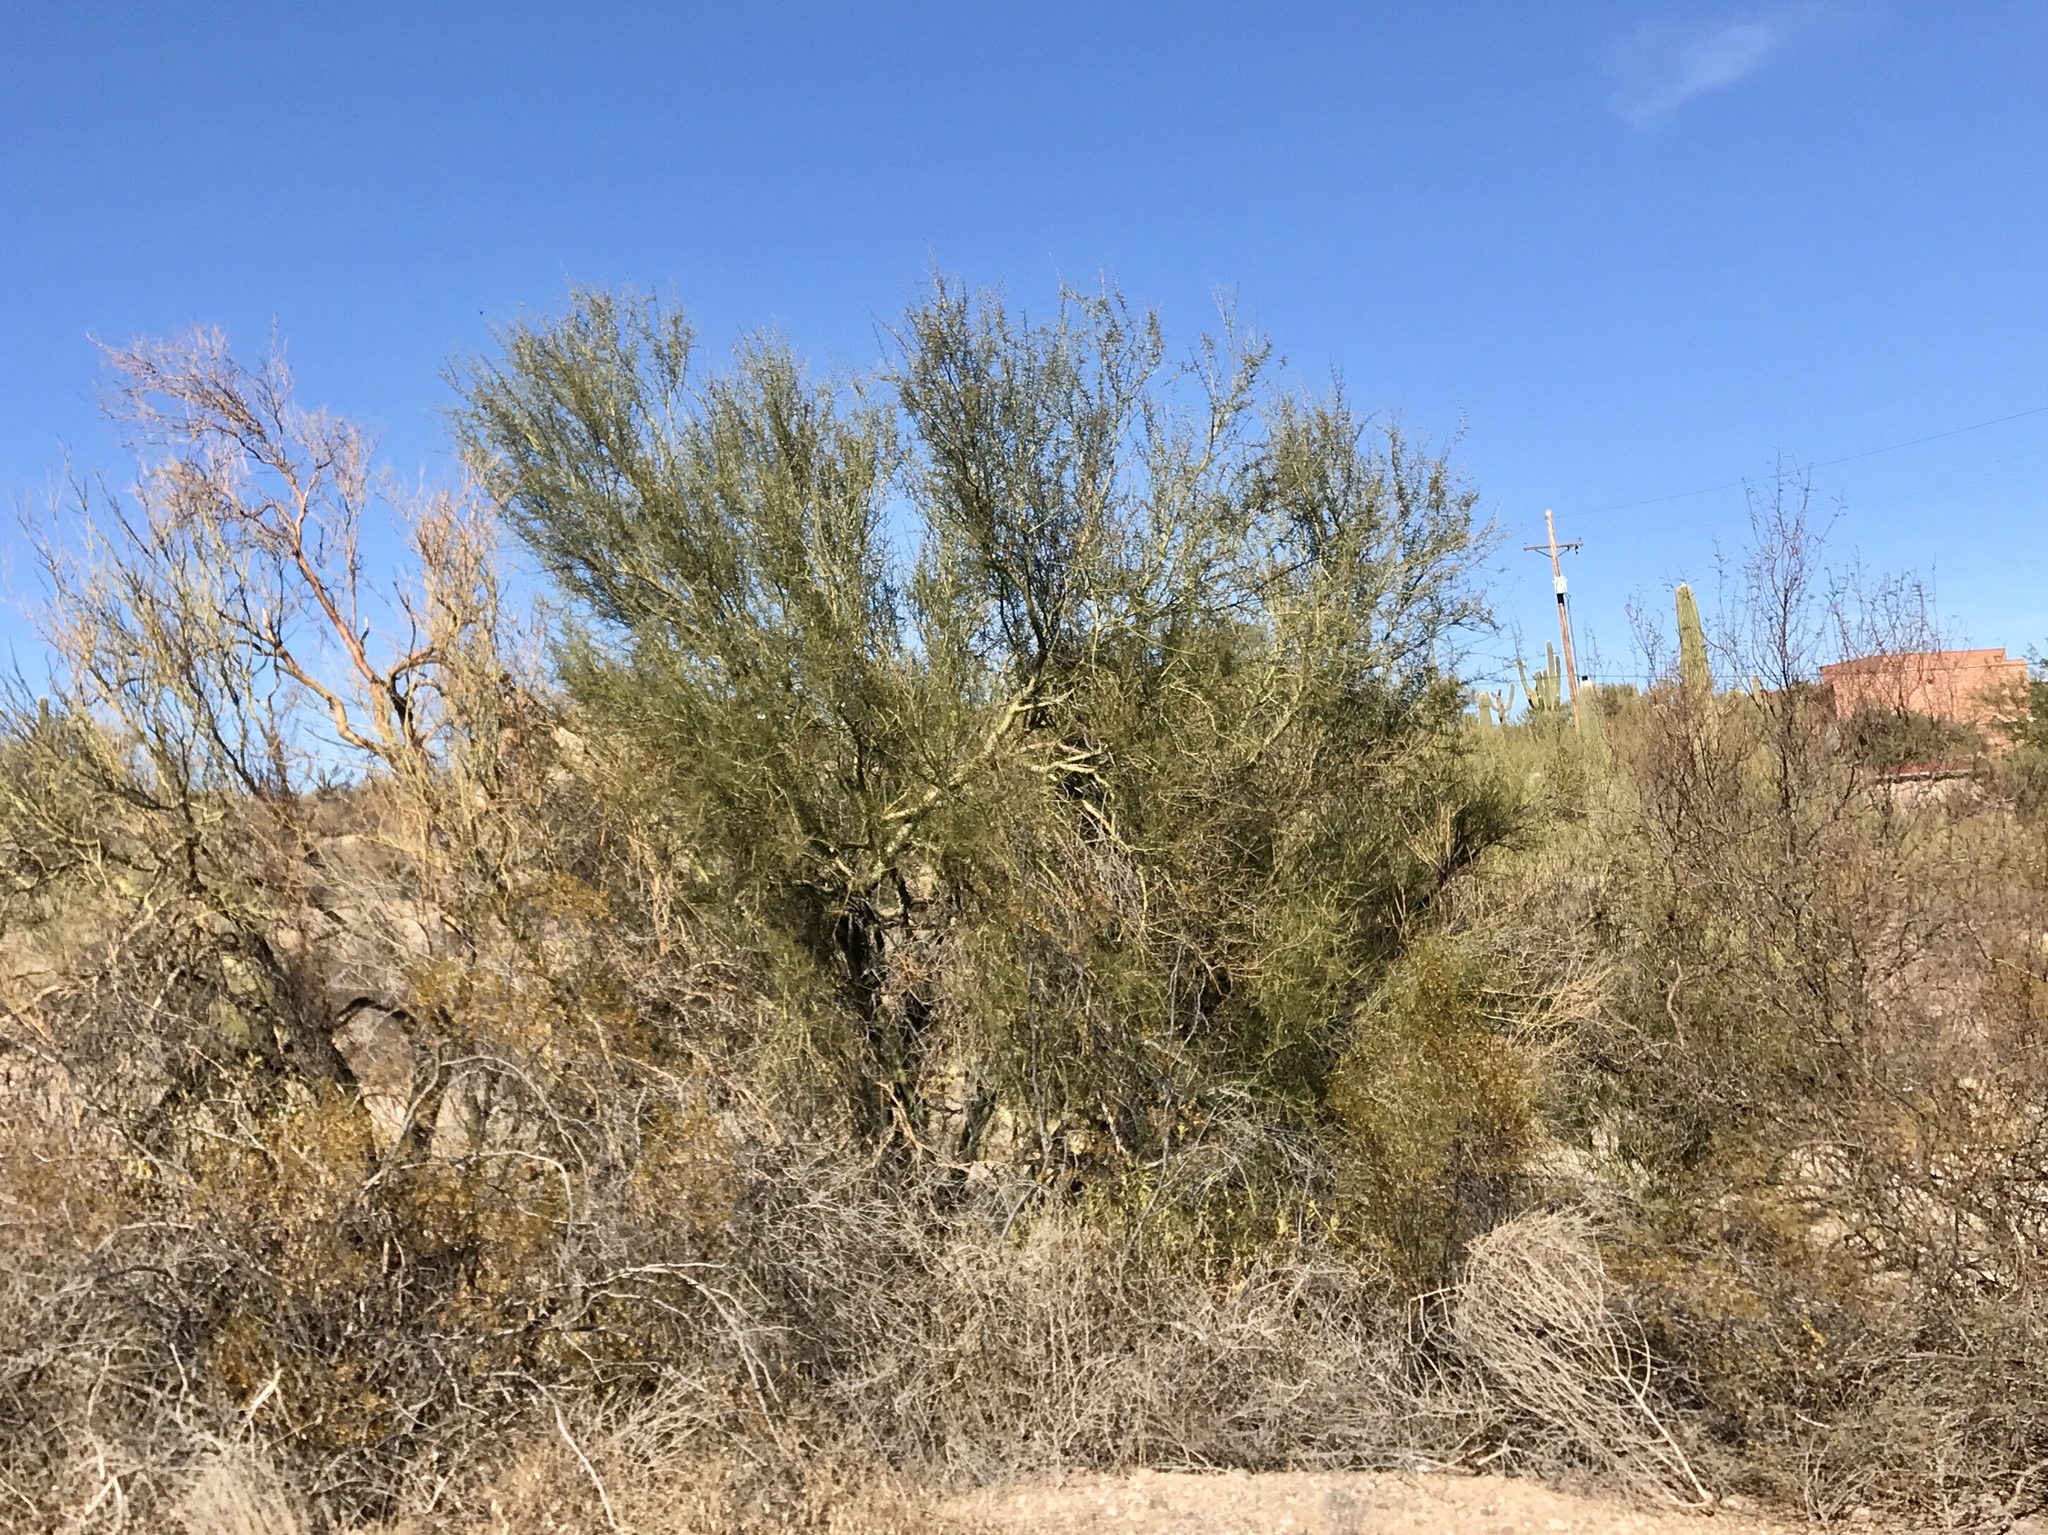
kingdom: Plantae
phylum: Tracheophyta
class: Magnoliopsida
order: Fabales
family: Fabaceae
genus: Parkinsonia
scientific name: Parkinsonia microphylla
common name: Yellow paloverde
